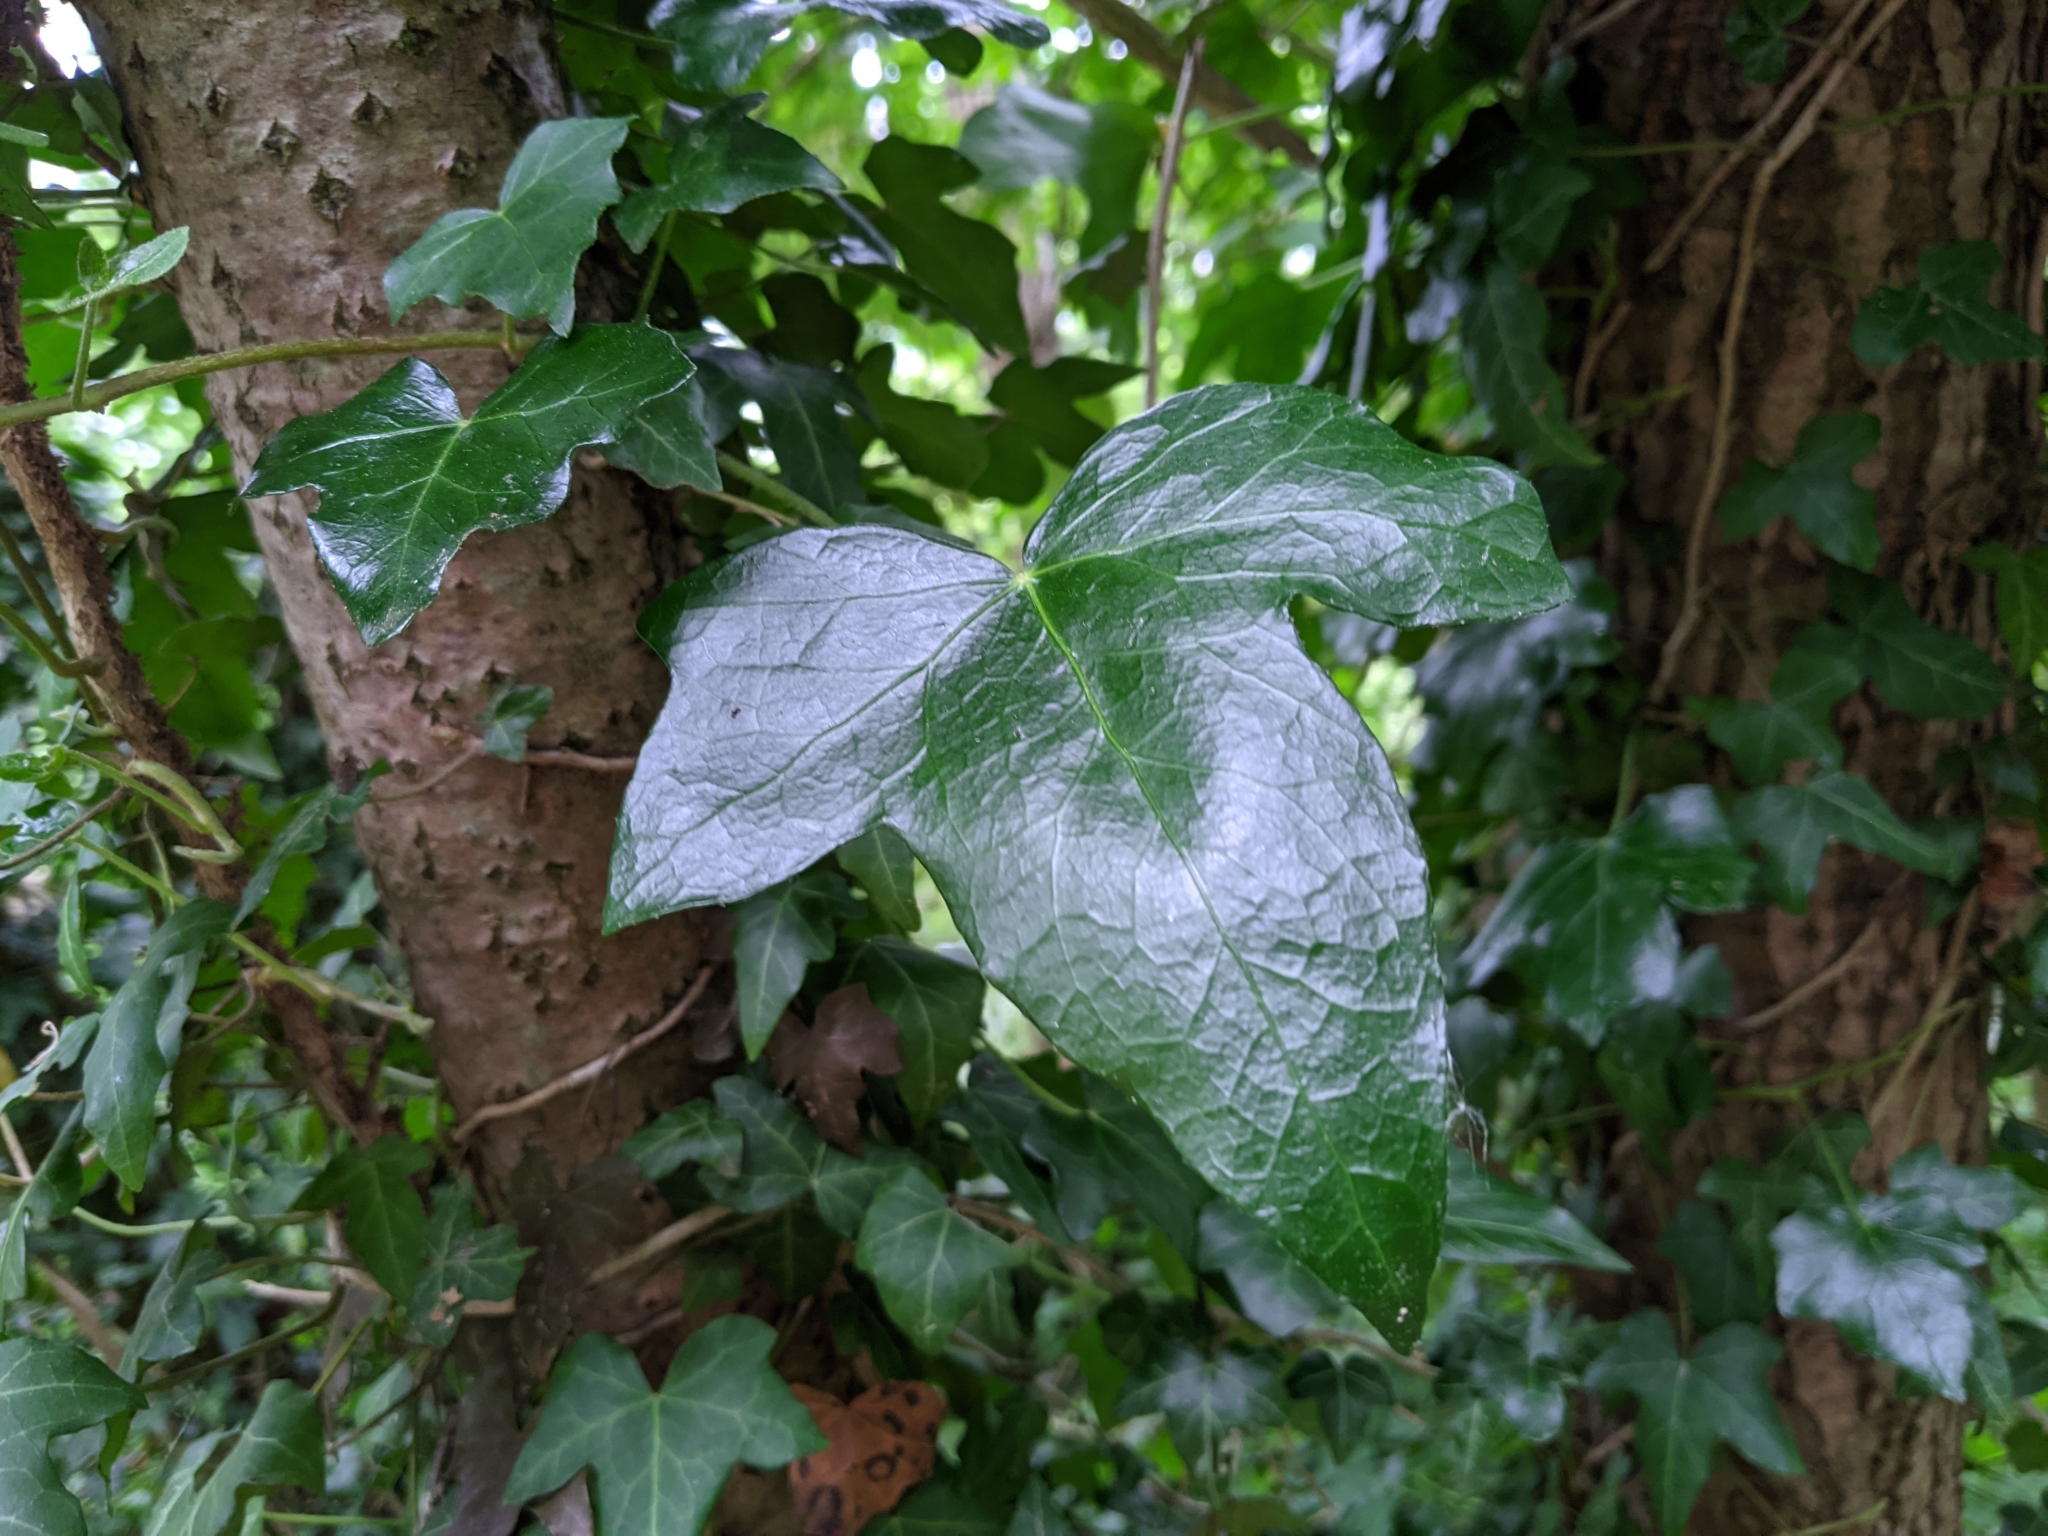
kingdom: Plantae
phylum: Tracheophyta
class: Magnoliopsida
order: Apiales
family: Araliaceae
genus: Hedera
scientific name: Hedera helix
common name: Ivy
